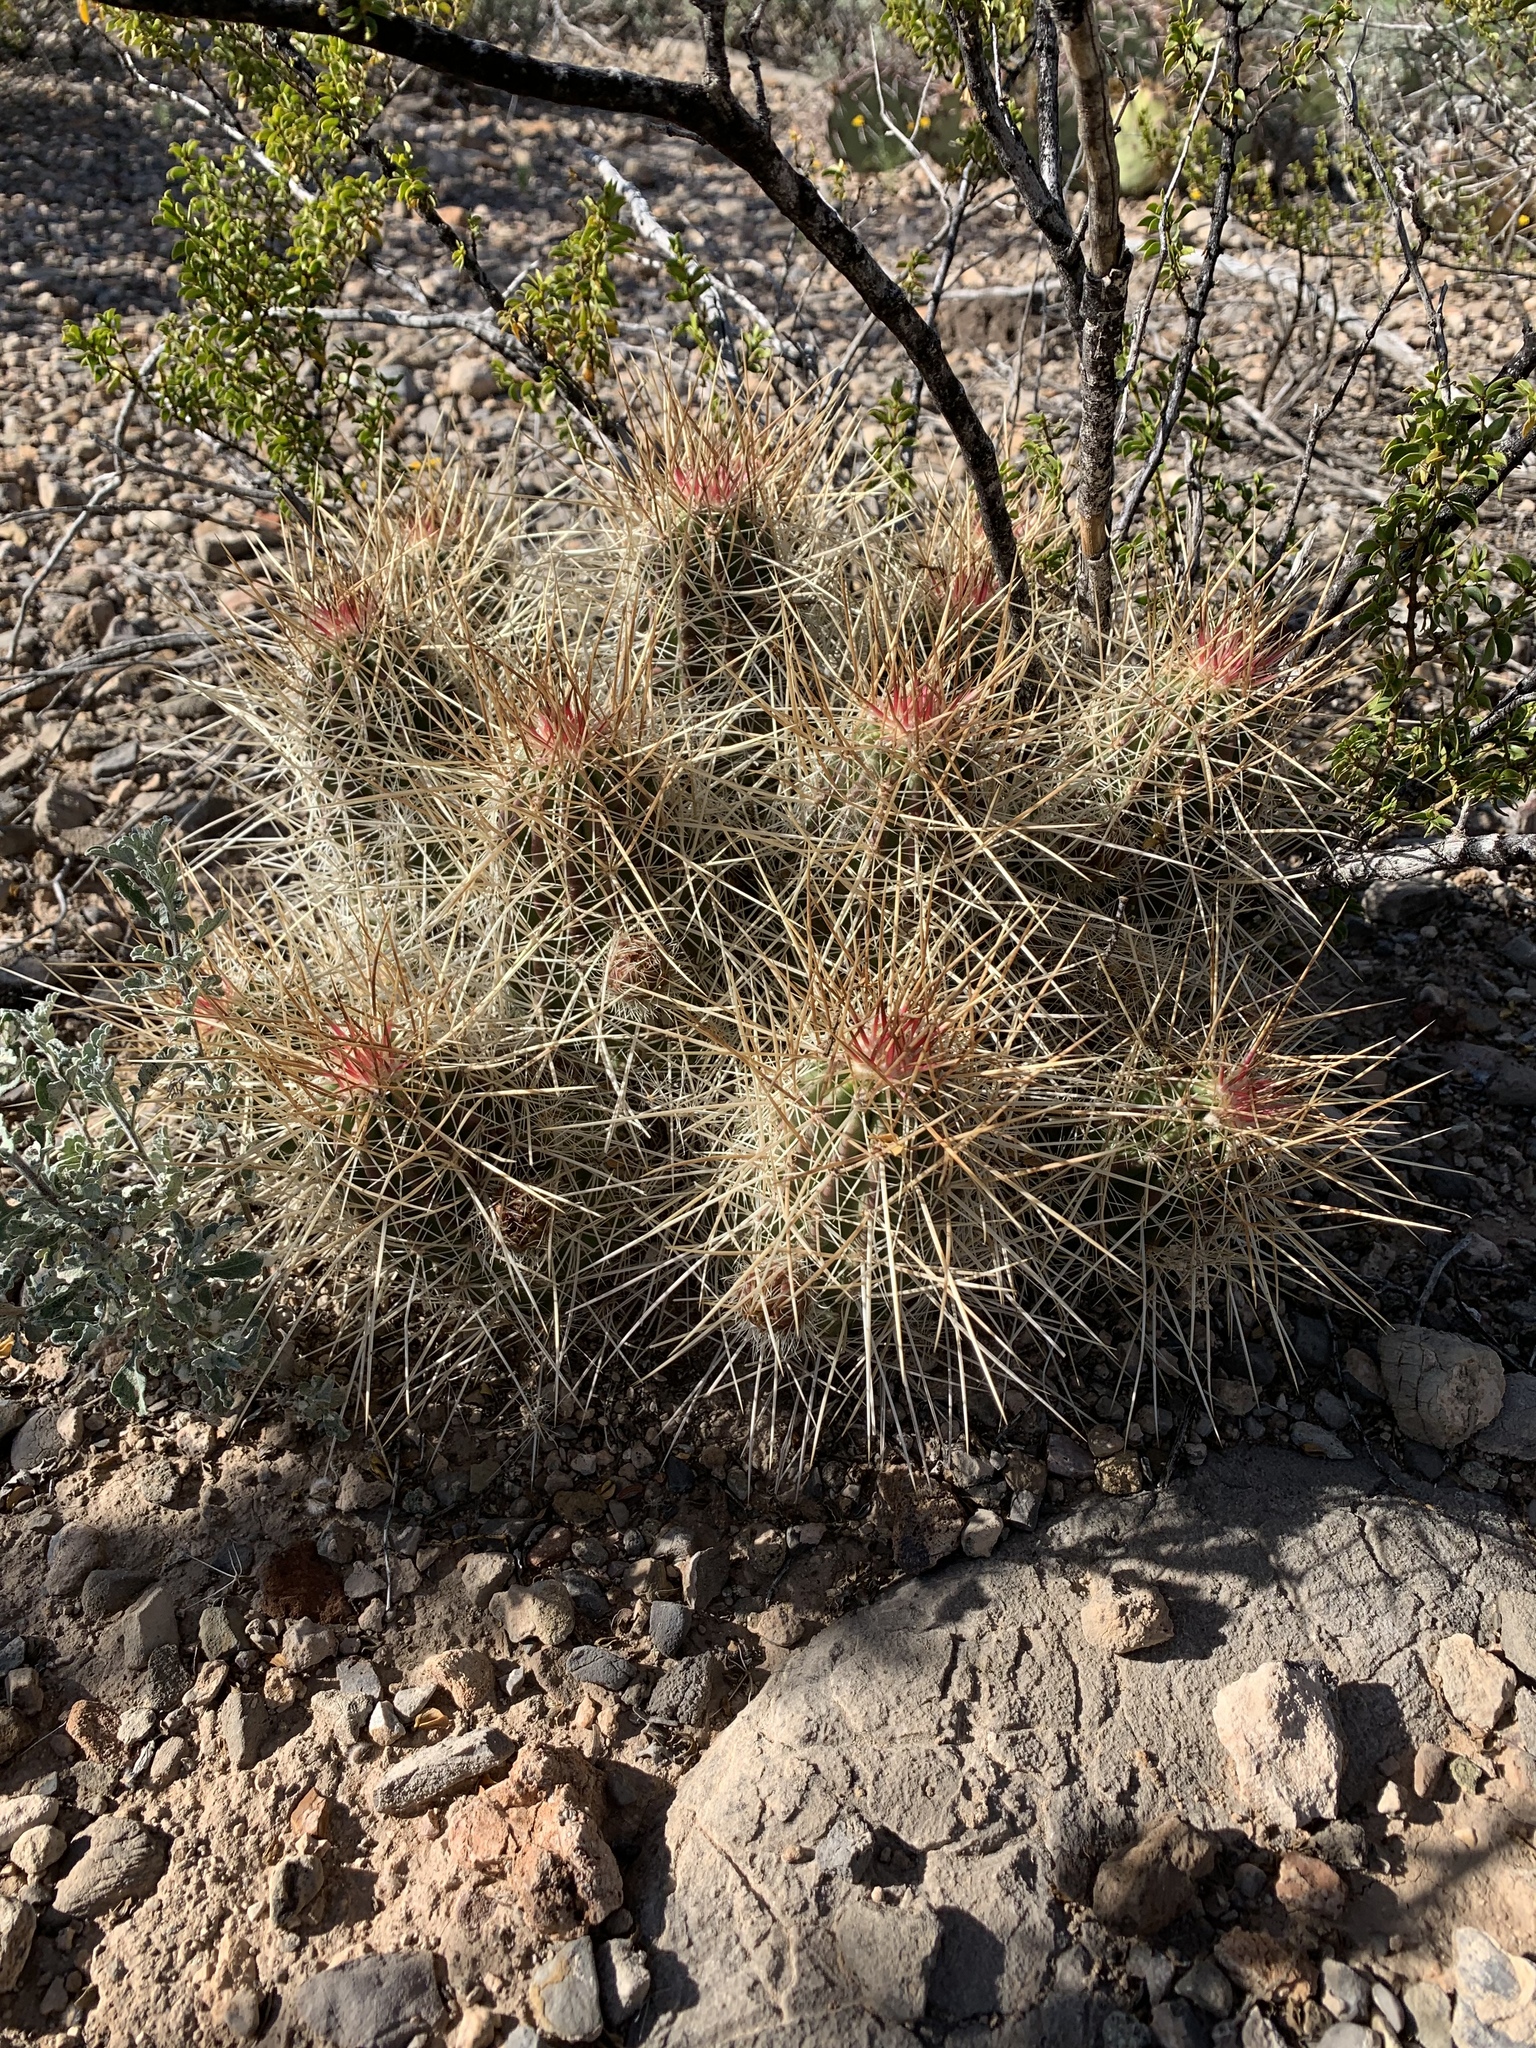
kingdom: Plantae
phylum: Tracheophyta
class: Magnoliopsida
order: Caryophyllales
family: Cactaceae
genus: Echinocereus
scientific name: Echinocereus stramineus
